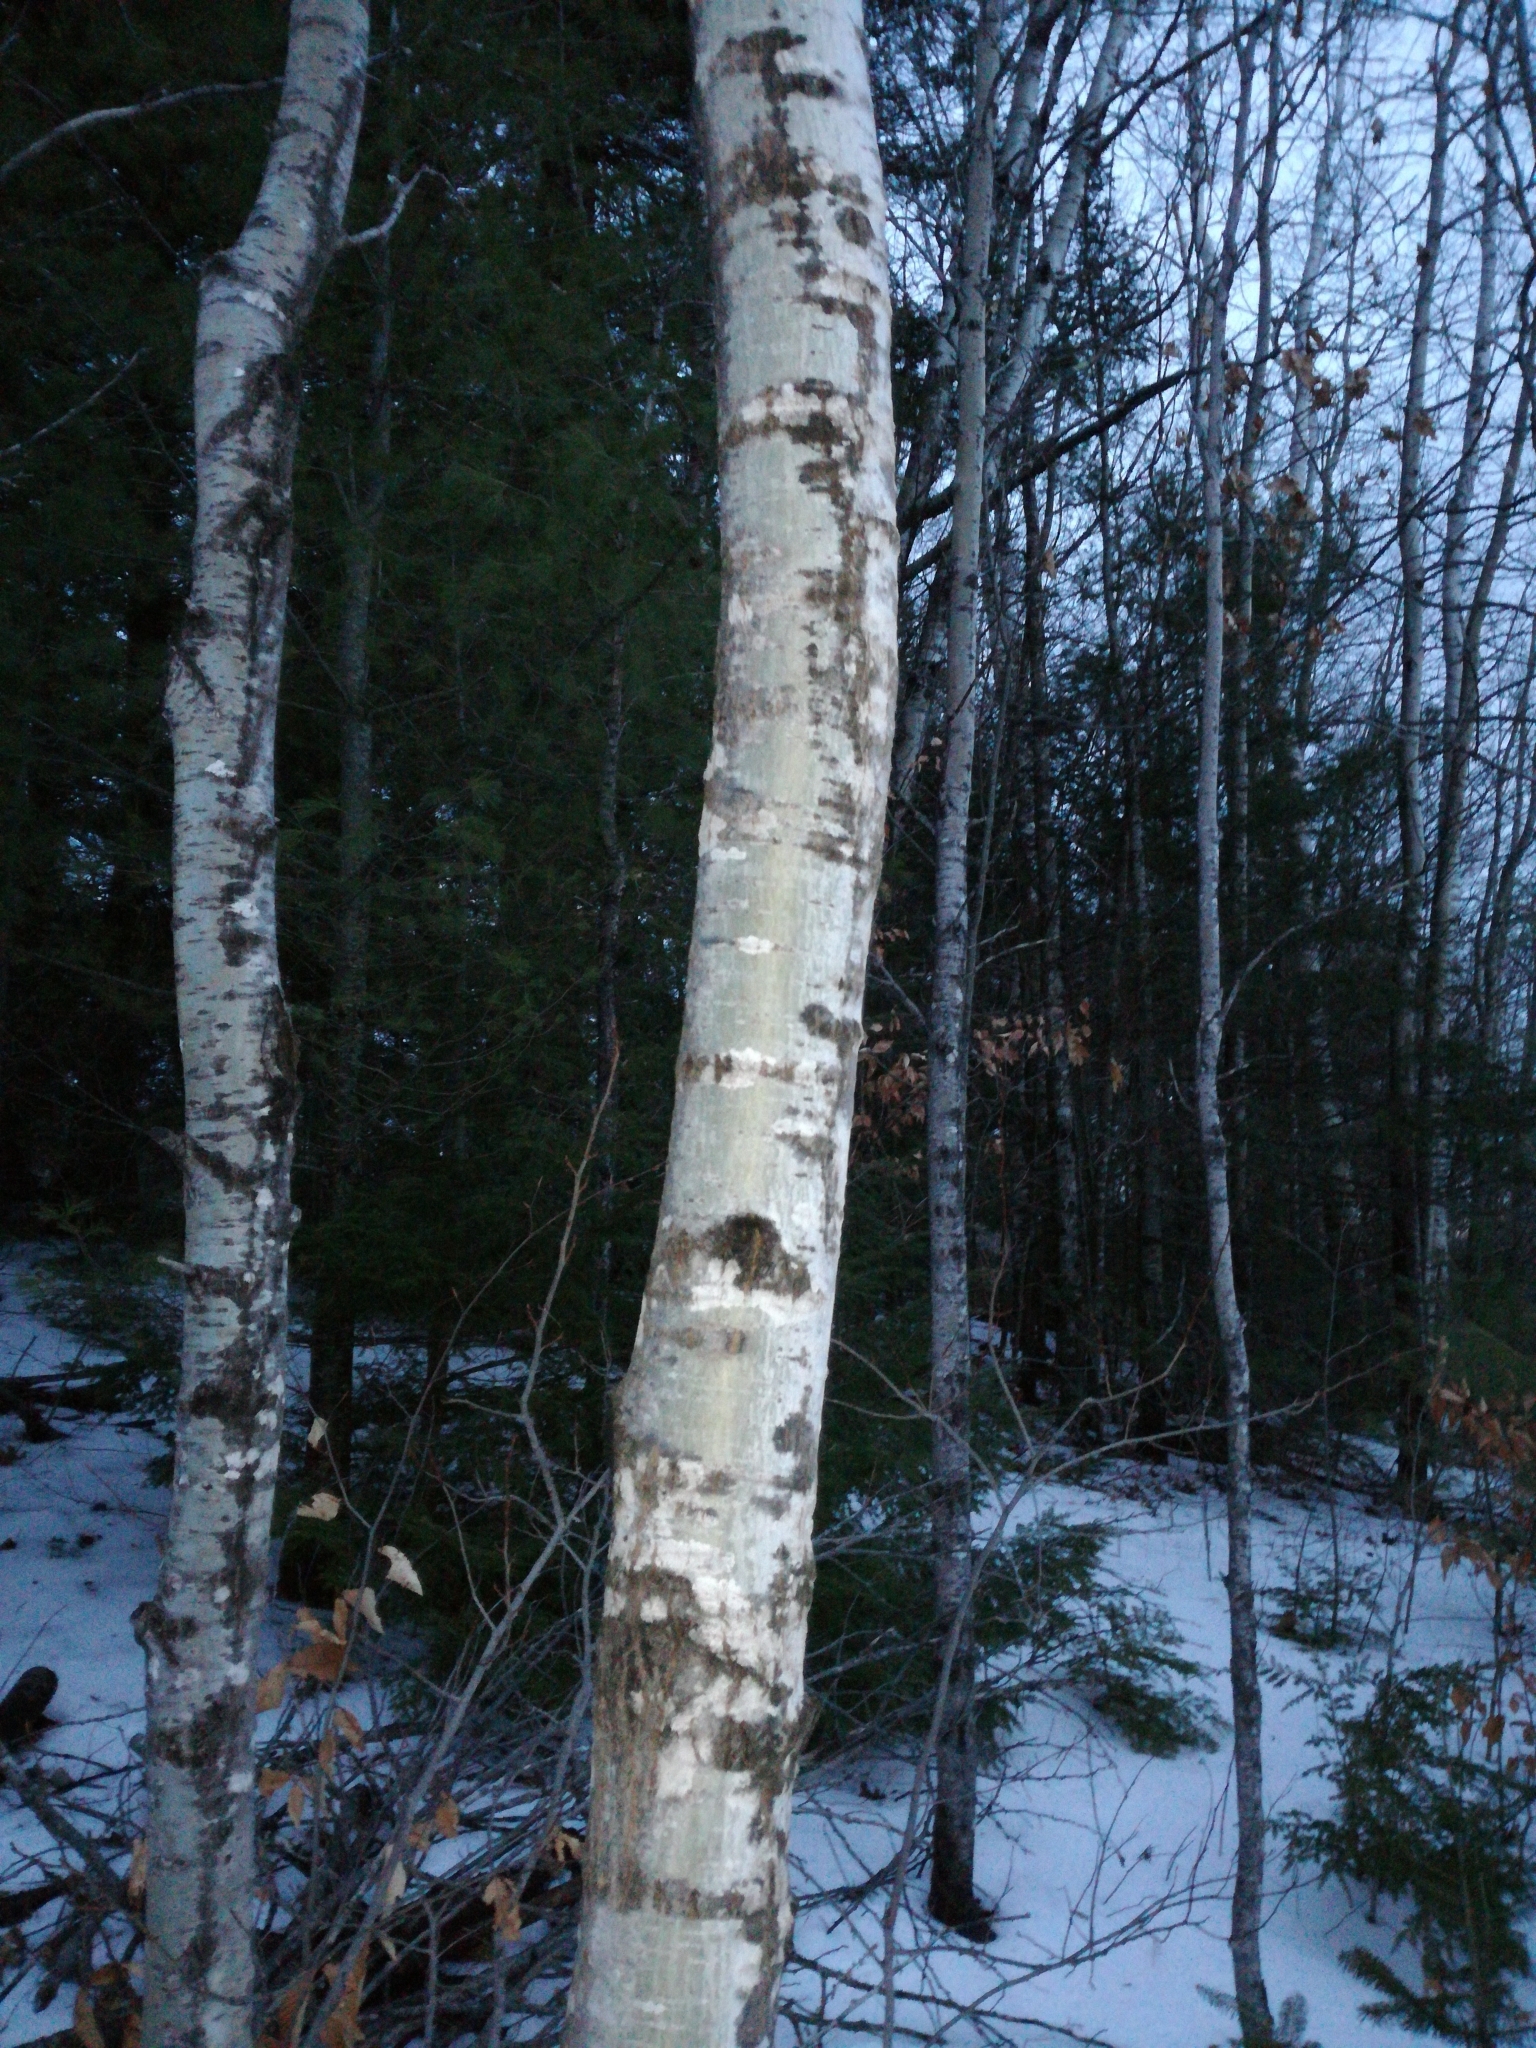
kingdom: Plantae
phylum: Tracheophyta
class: Magnoliopsida
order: Malpighiales
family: Salicaceae
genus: Populus
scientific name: Populus tremuloides
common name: Quaking aspen
